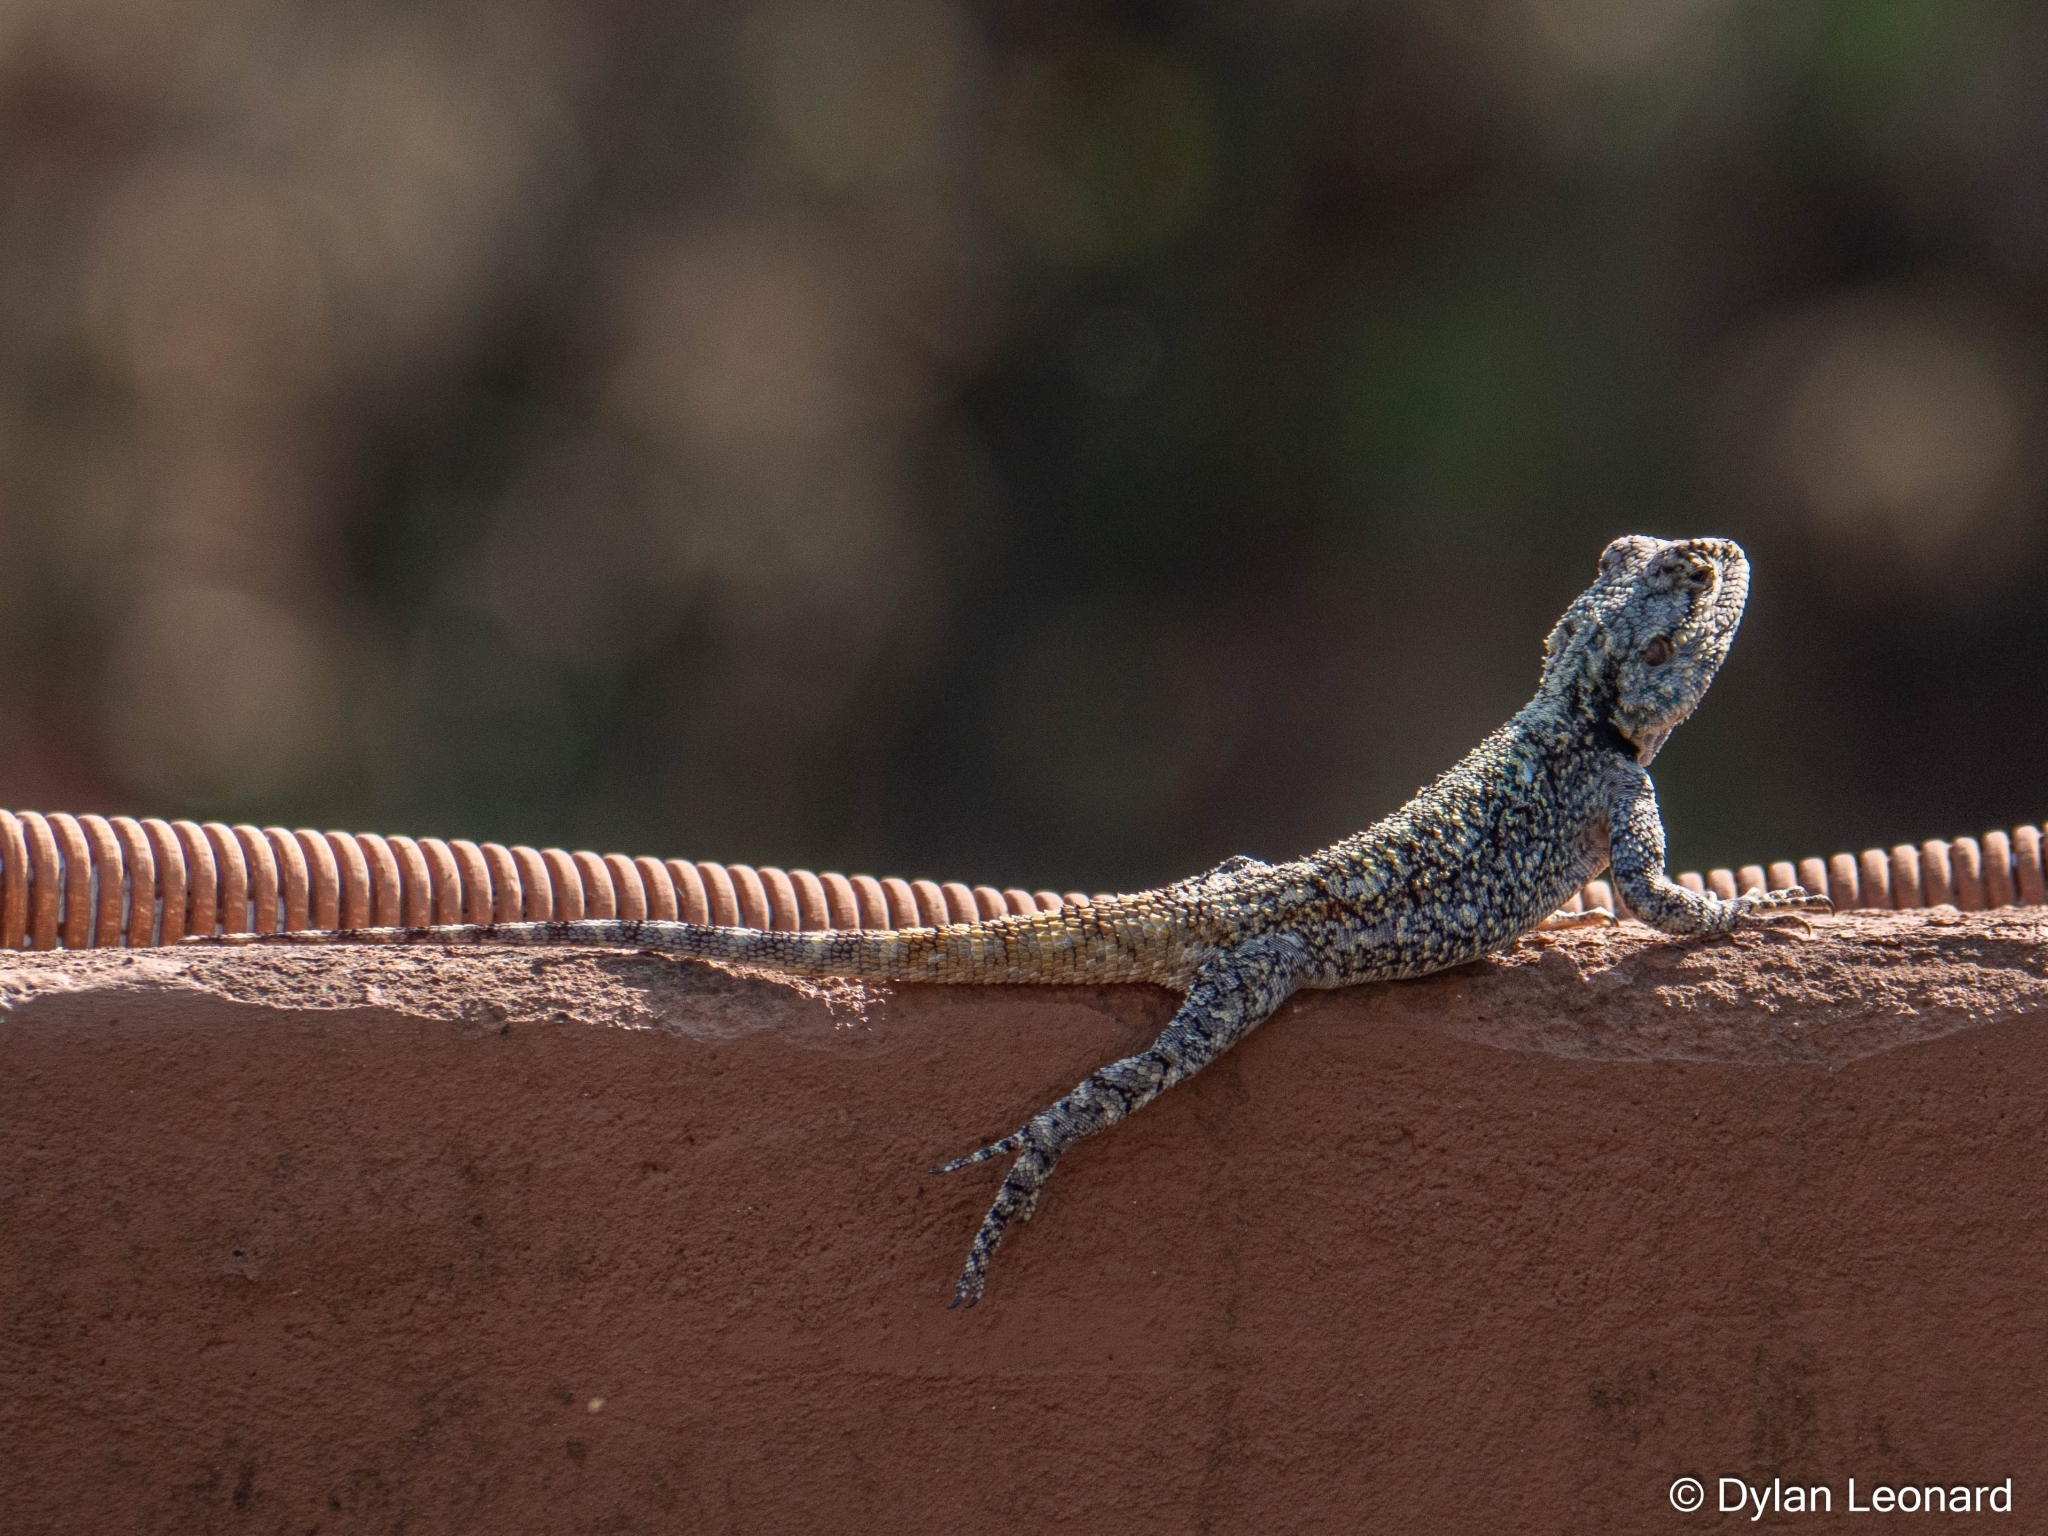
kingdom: Animalia
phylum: Chordata
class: Squamata
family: Agamidae
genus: Acanthocercus
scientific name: Acanthocercus atricollis
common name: Southern tree agama
